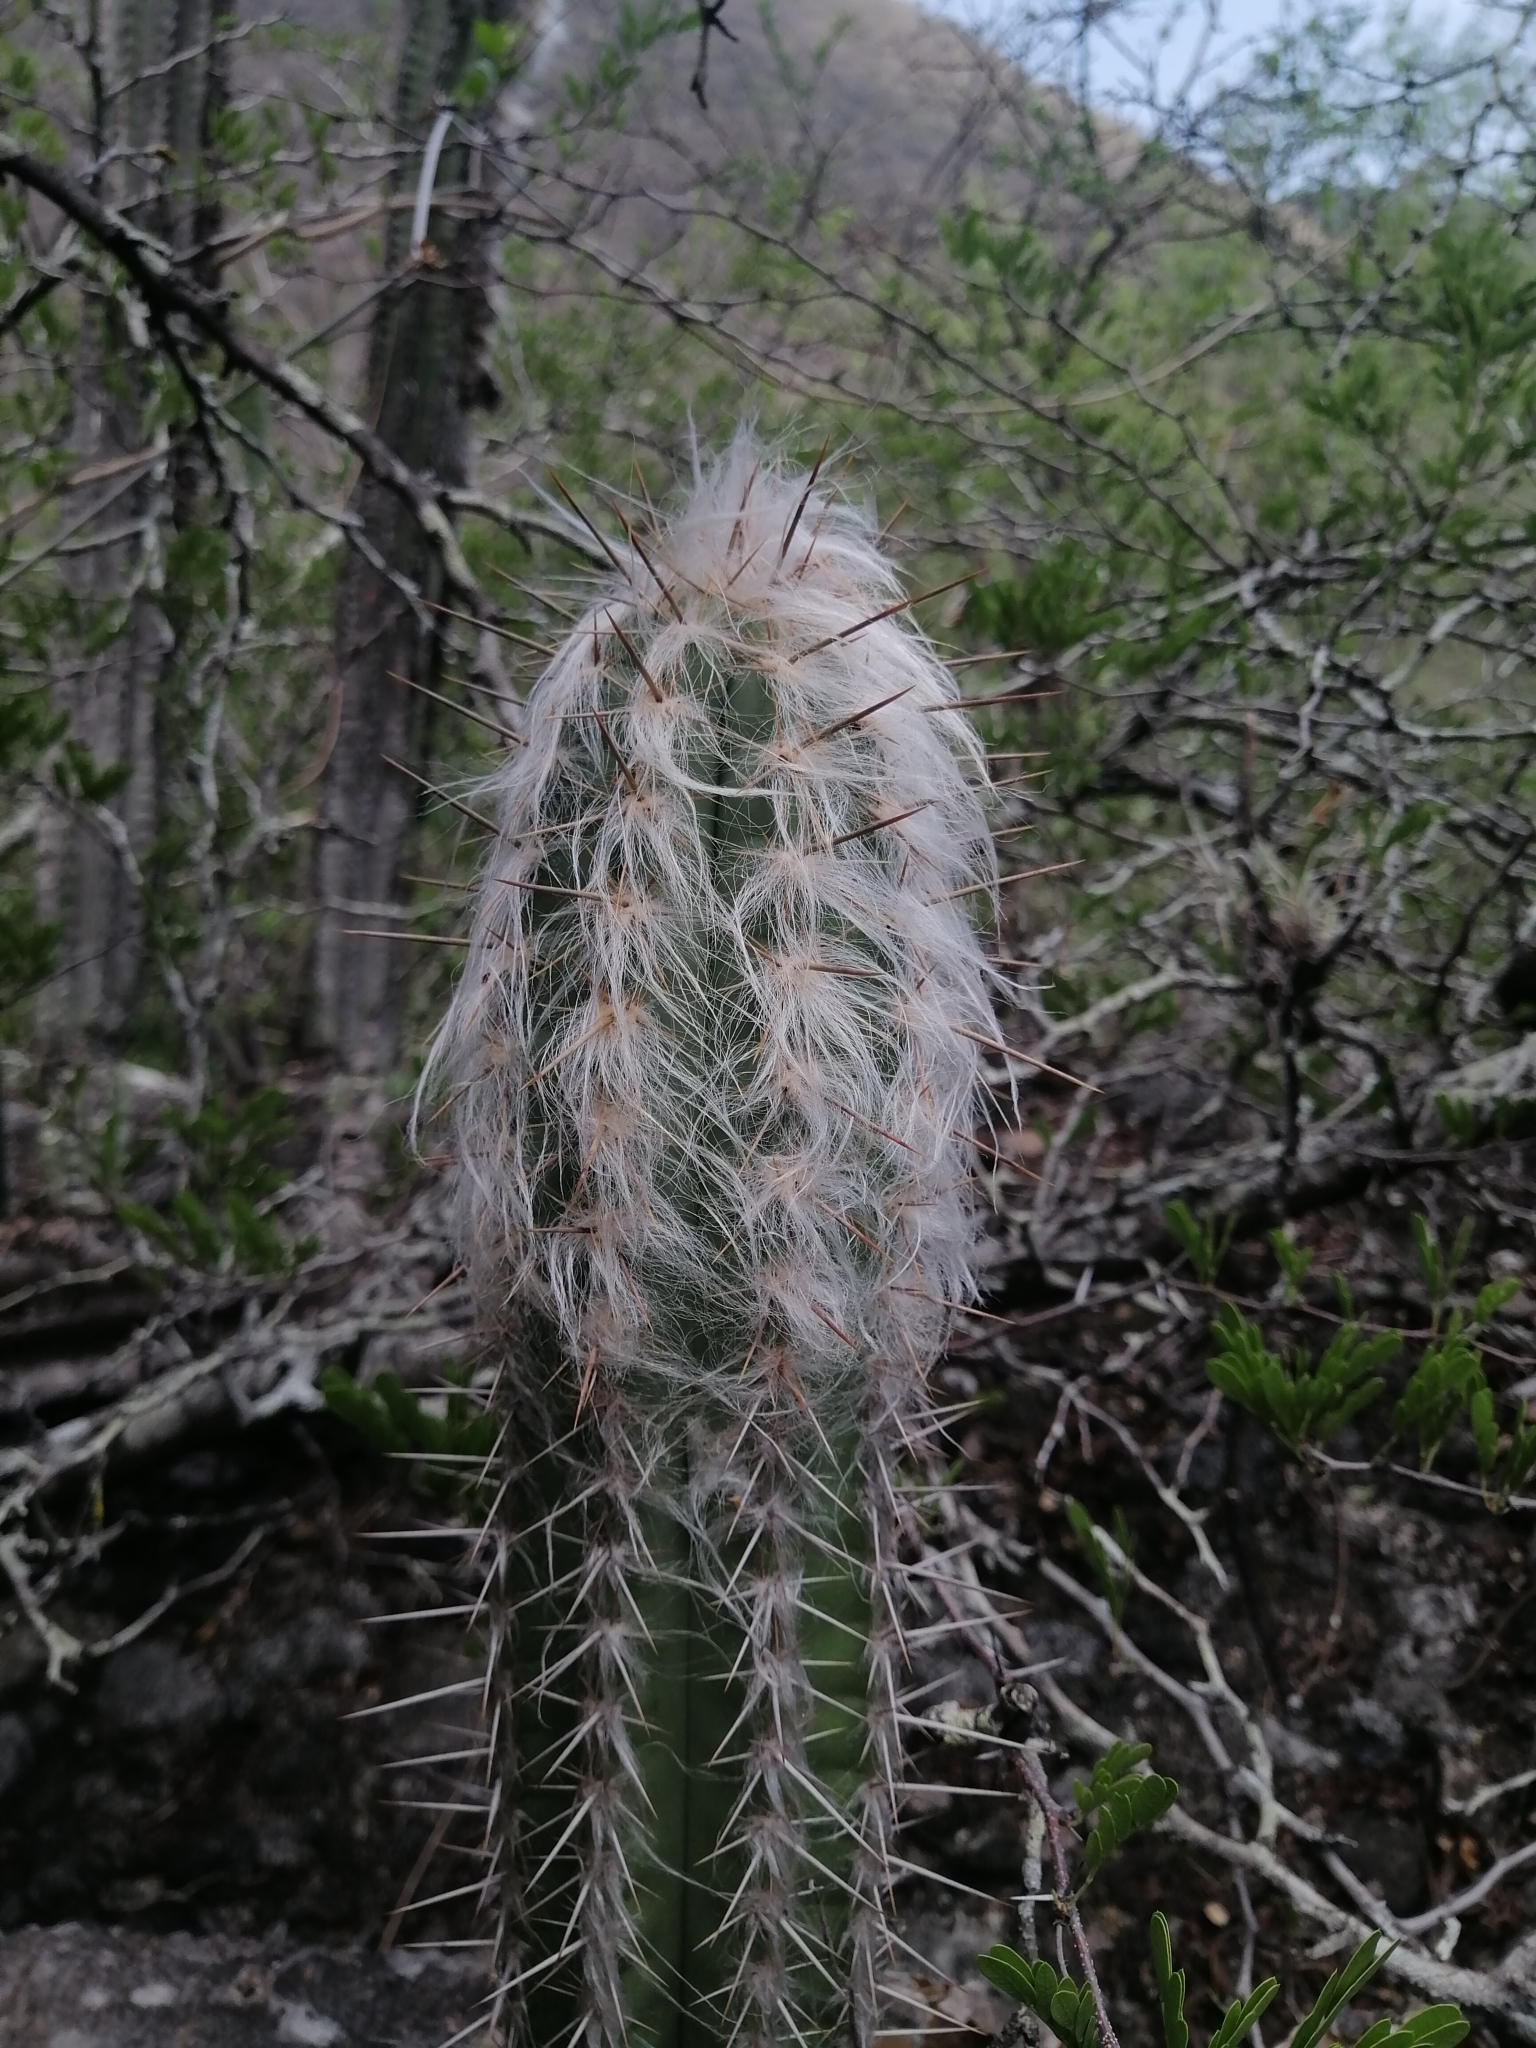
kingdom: Plantae
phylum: Tracheophyta
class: Magnoliopsida
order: Caryophyllales
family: Cactaceae
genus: Pilosocereus
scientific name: Pilosocereus leucocephalus
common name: Old man cactus
